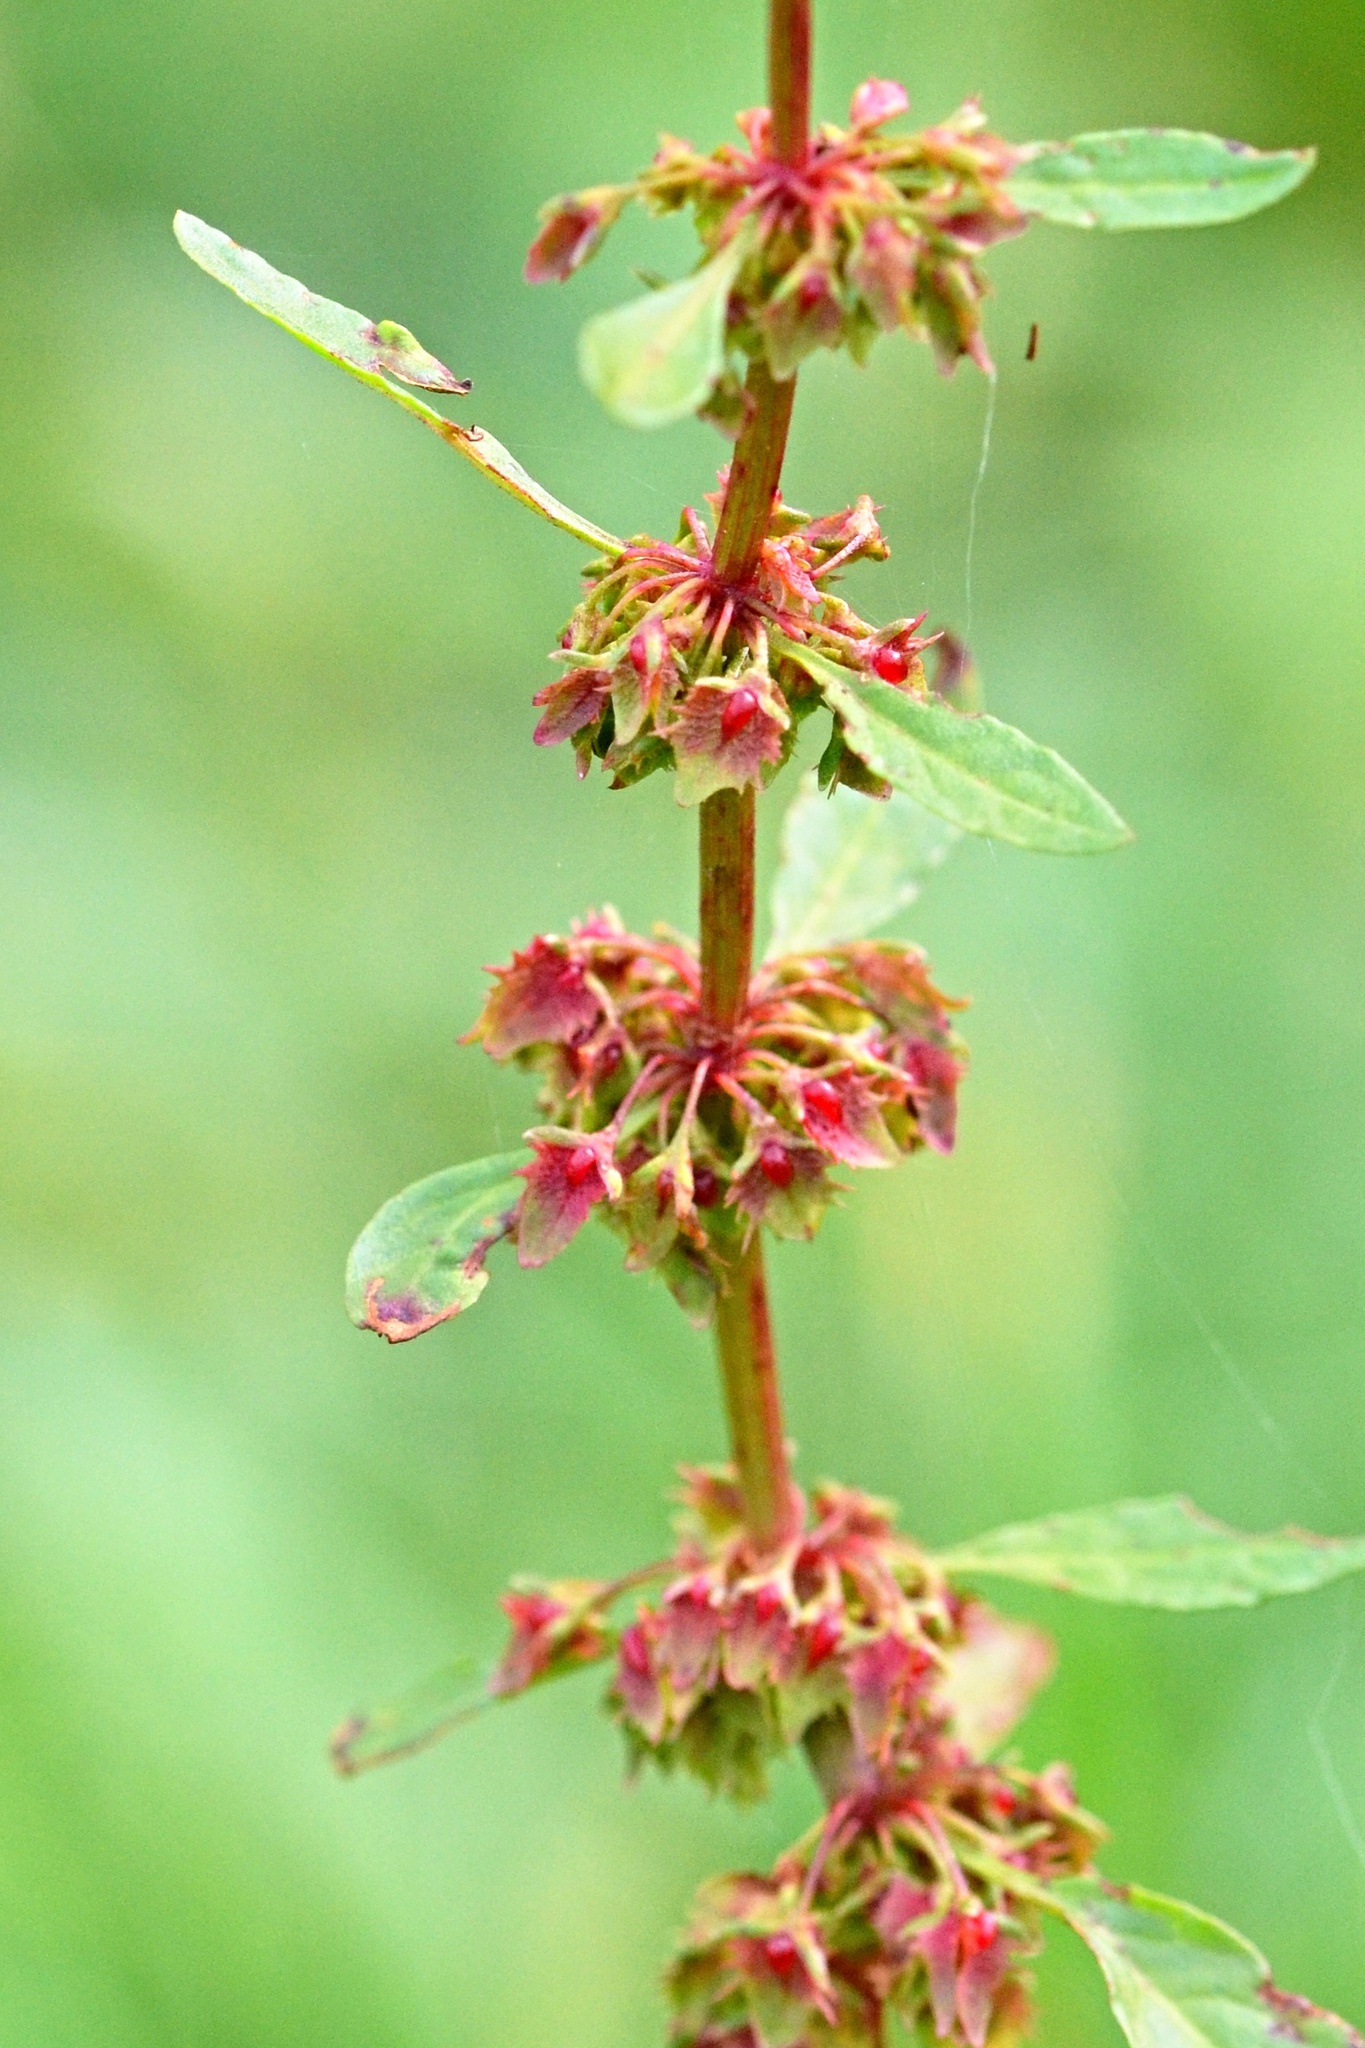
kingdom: Plantae
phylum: Tracheophyta
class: Magnoliopsida
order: Caryophyllales
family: Polygonaceae
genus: Rumex
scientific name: Rumex obtusifolius
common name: Bitter dock
